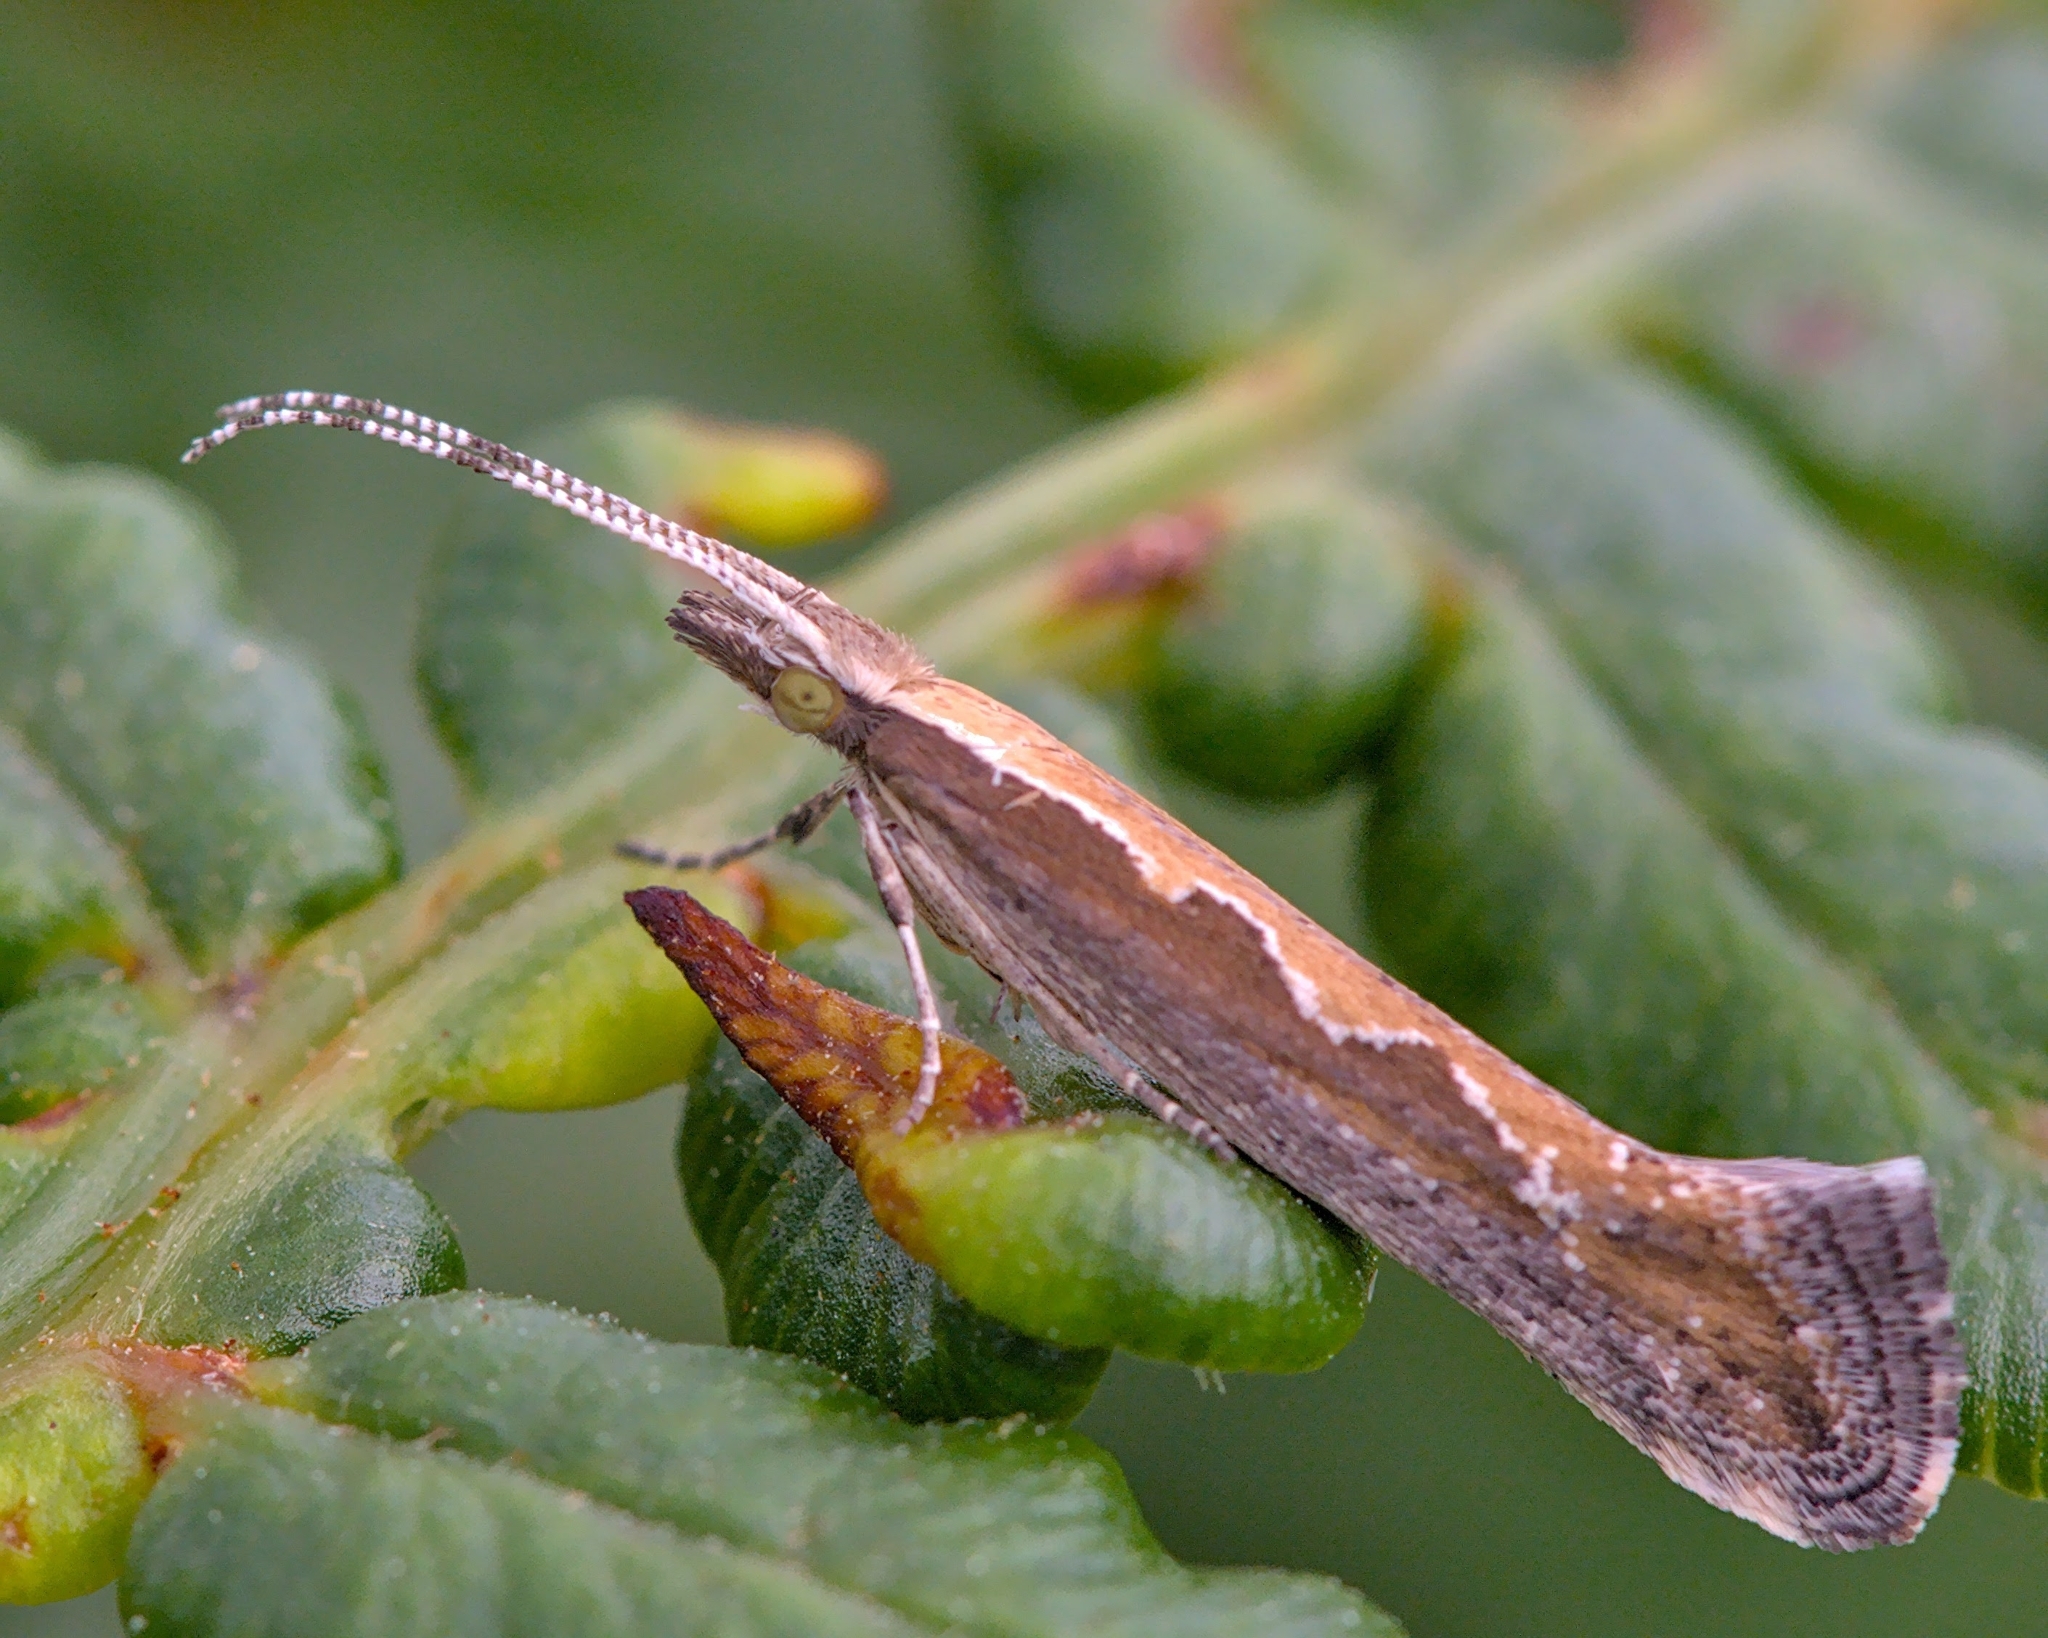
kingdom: Animalia
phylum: Arthropoda
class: Insecta
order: Lepidoptera
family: Plutellidae
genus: Plutella
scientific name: Plutella xylostella
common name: Diamond-back moth
